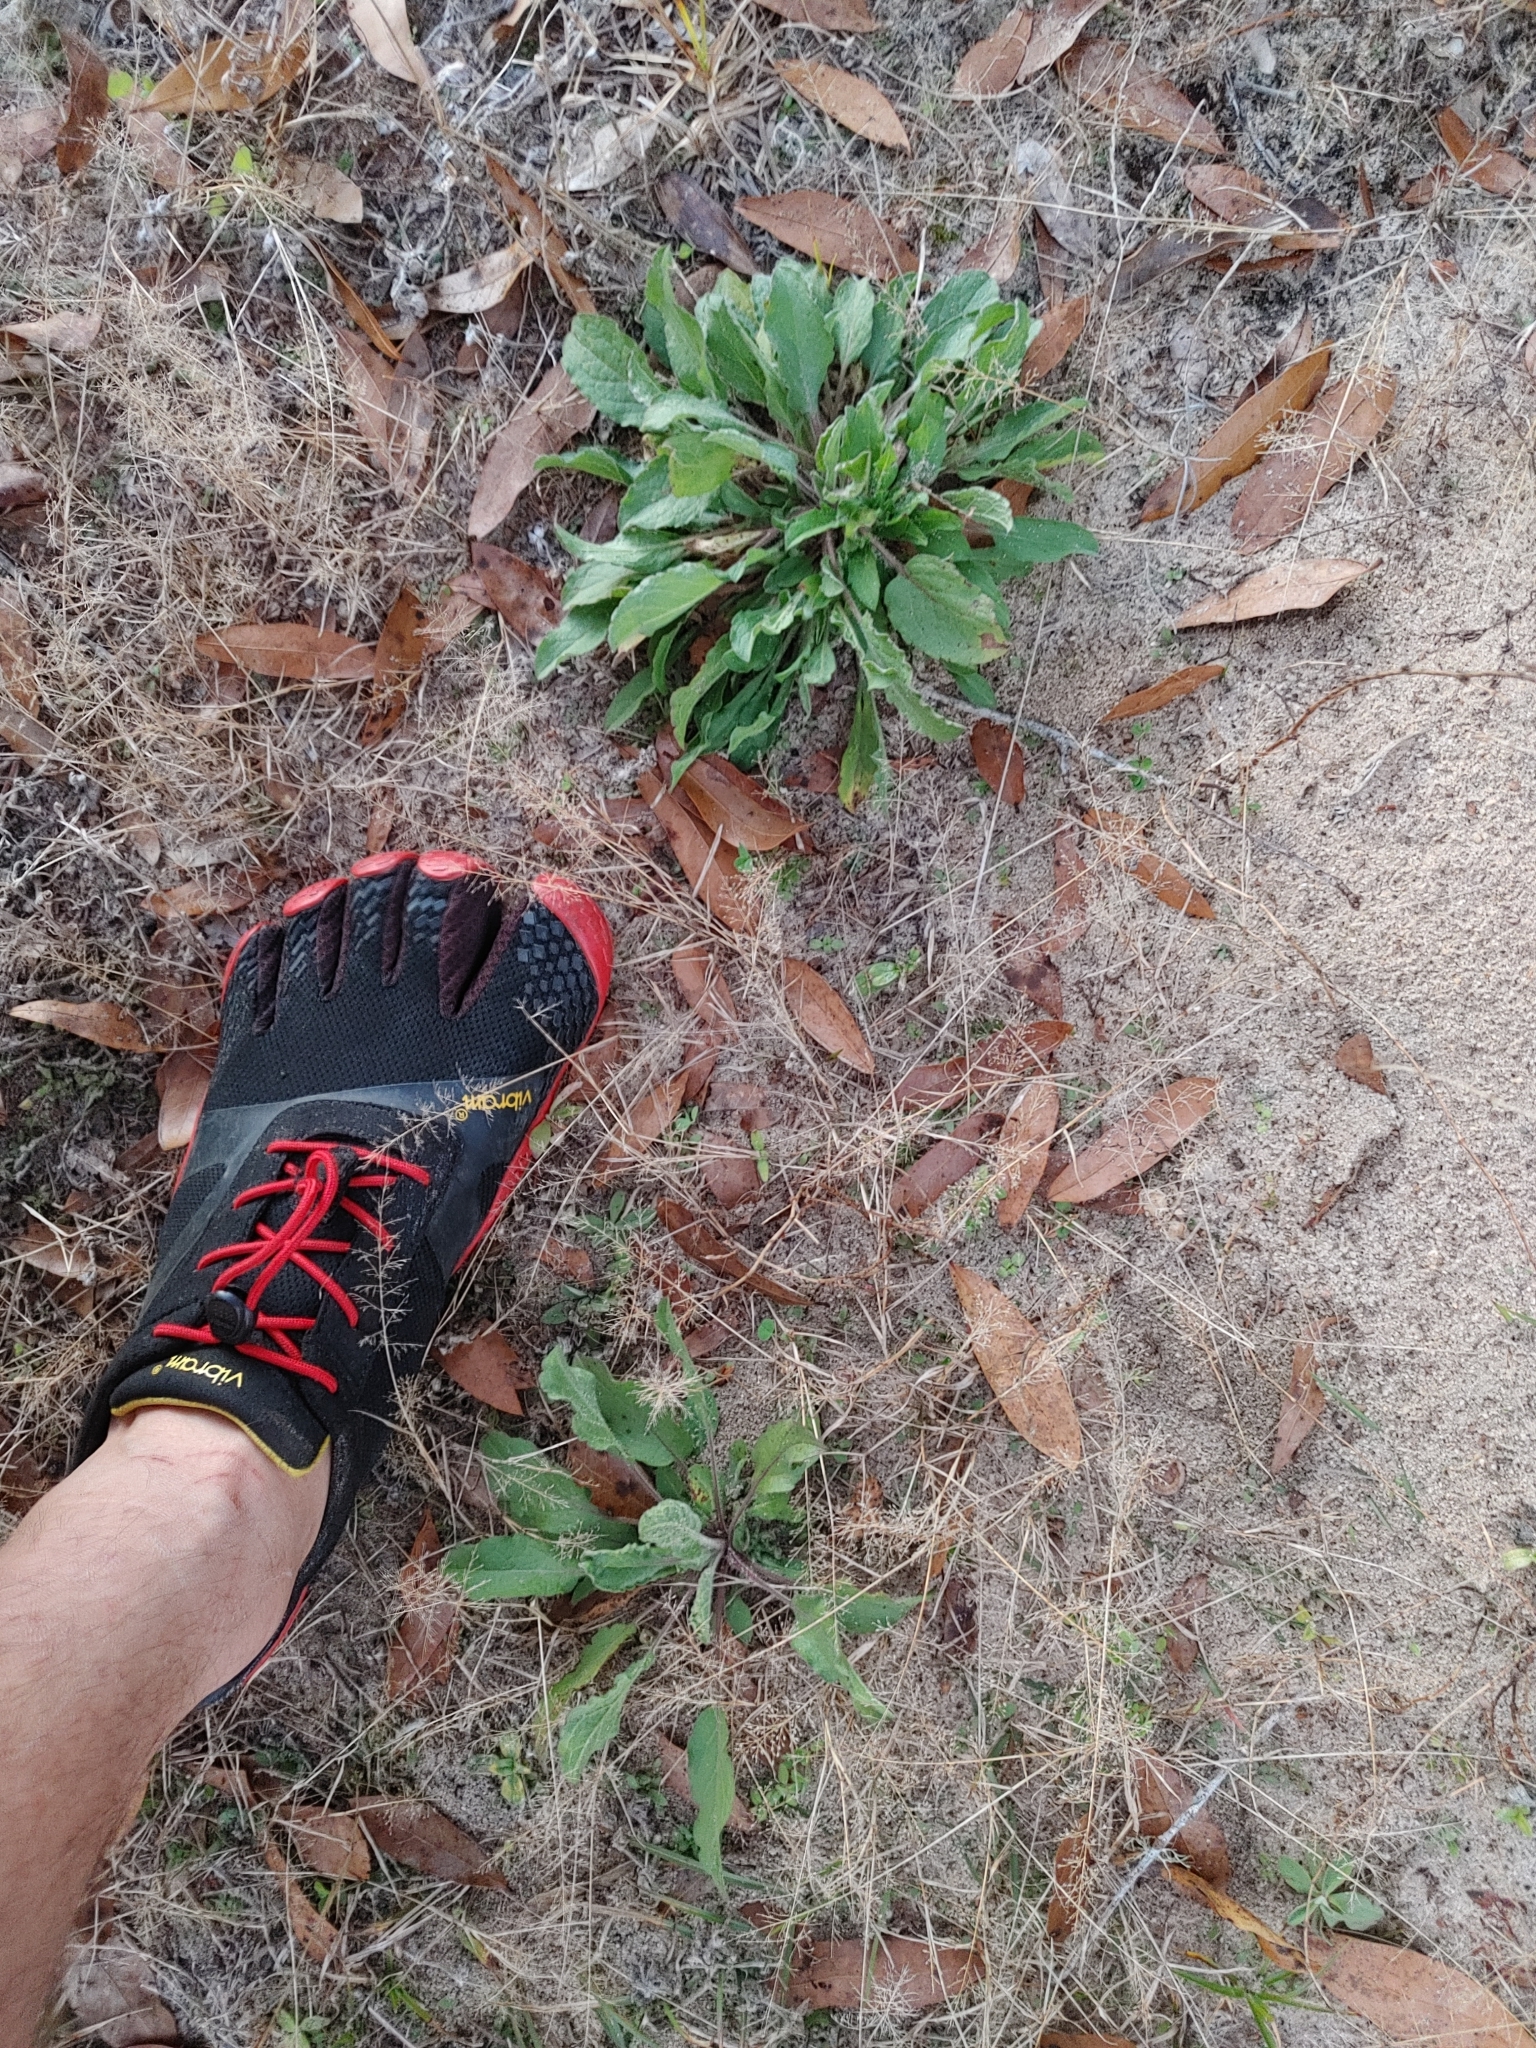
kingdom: Plantae
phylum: Tracheophyta
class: Magnoliopsida
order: Asterales
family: Asteraceae
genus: Heterotheca
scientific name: Heterotheca subaxillaris
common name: Camphorweed
